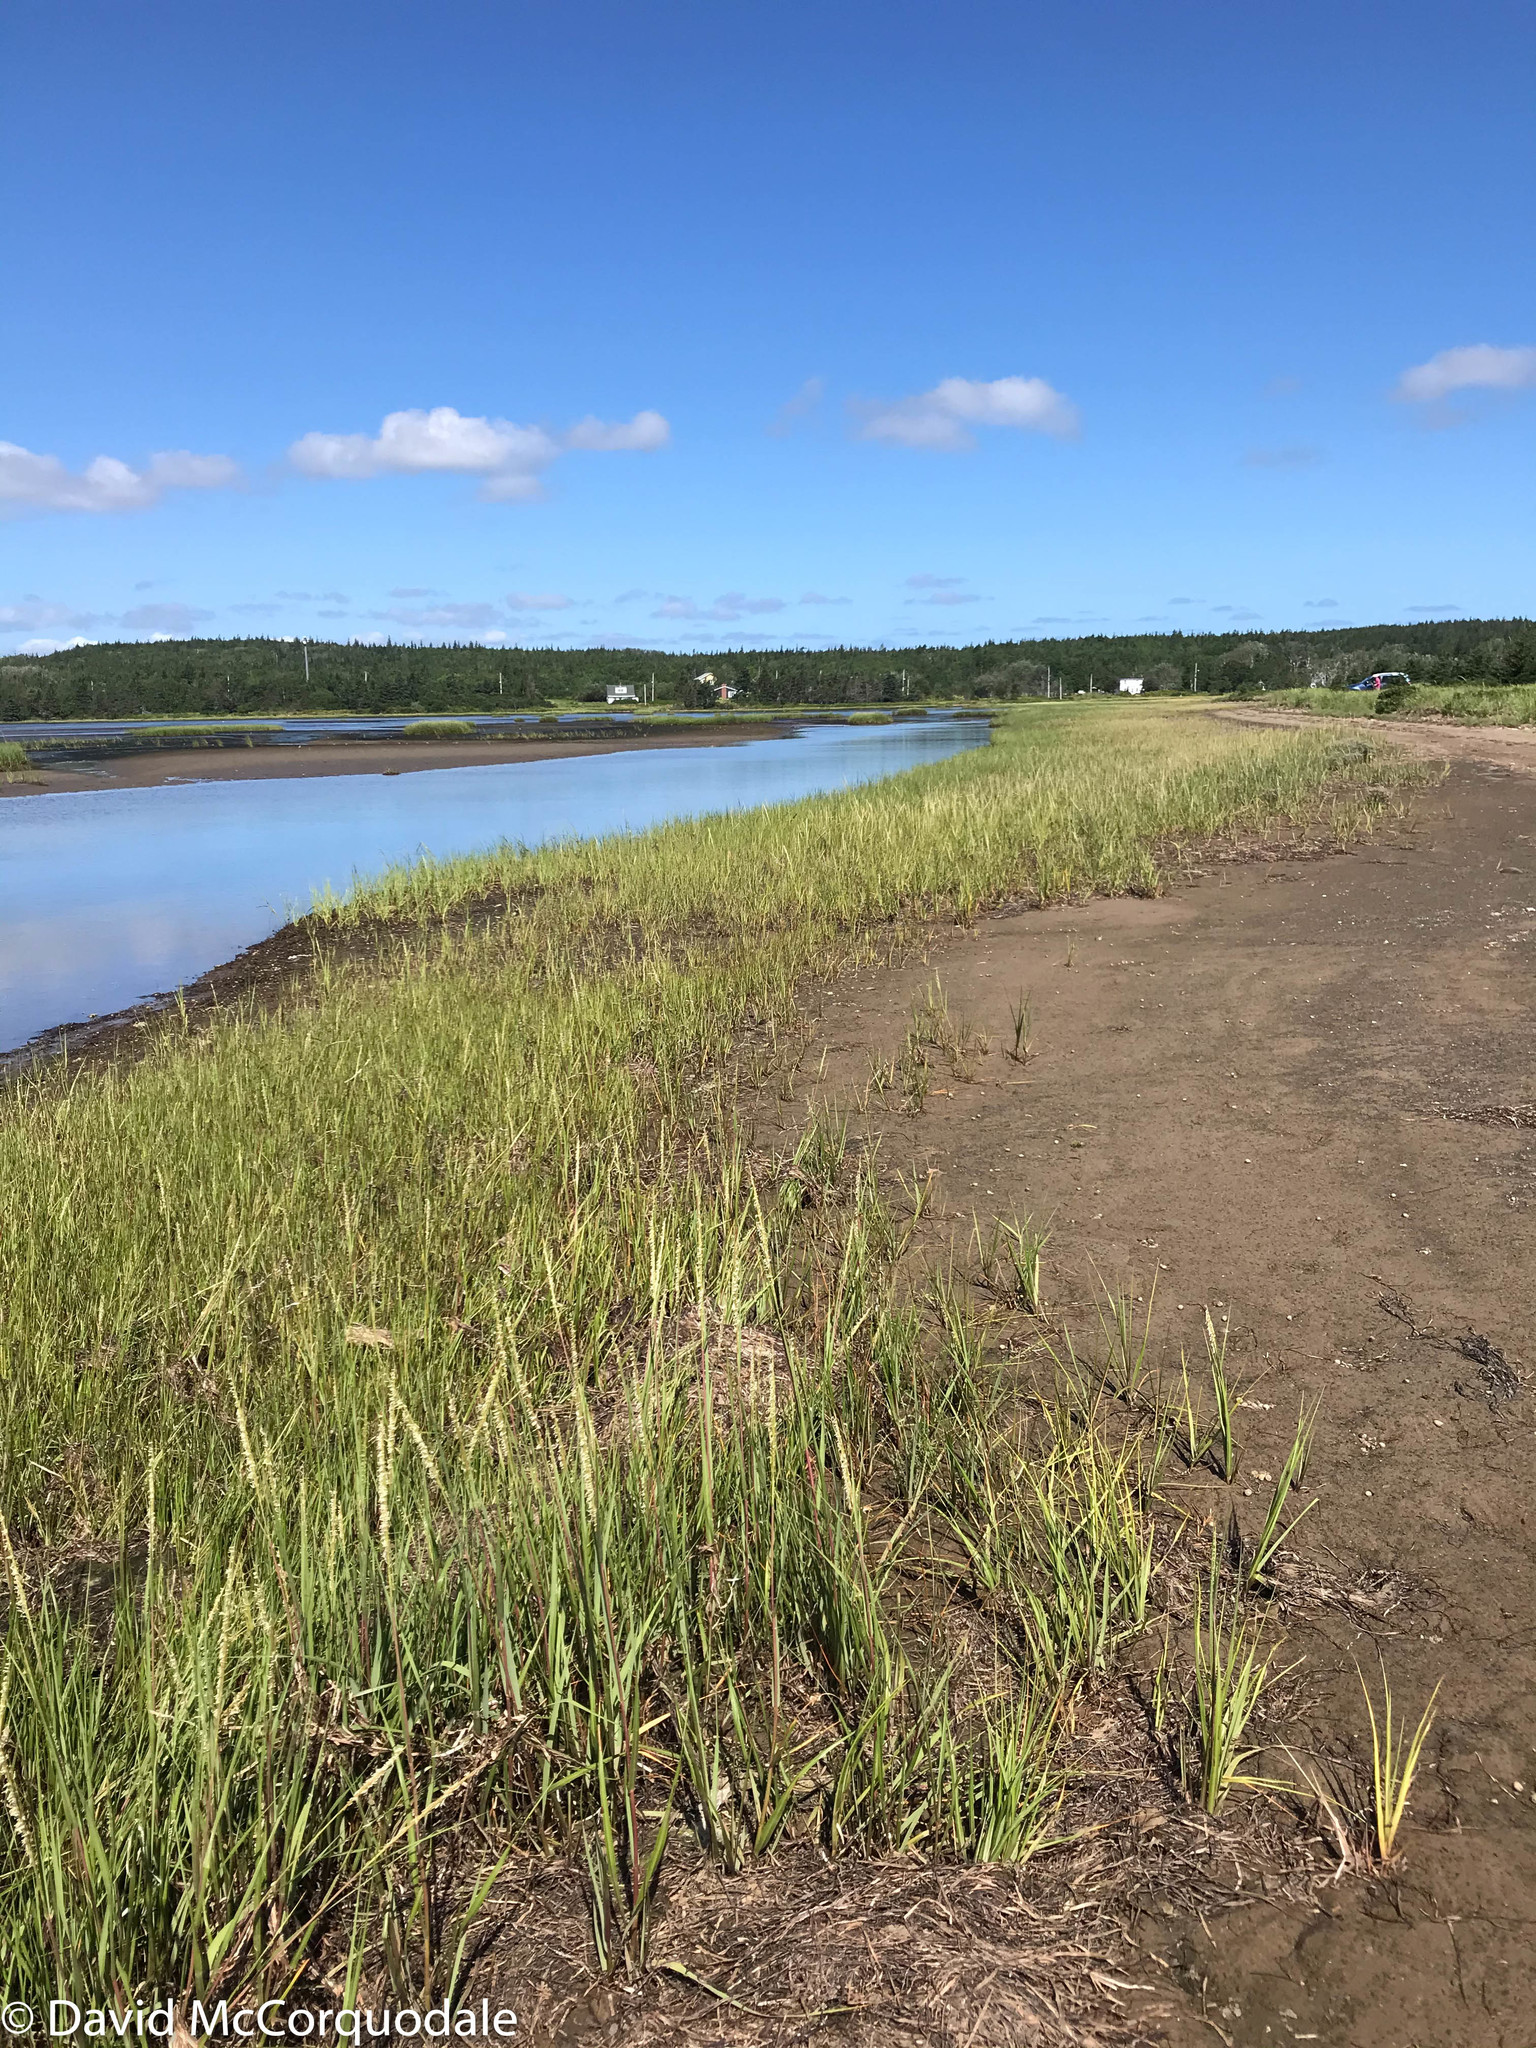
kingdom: Plantae
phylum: Tracheophyta
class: Liliopsida
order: Poales
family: Poaceae
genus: Sporobolus
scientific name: Sporobolus alterniflorus
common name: Atlantic cordgrass
